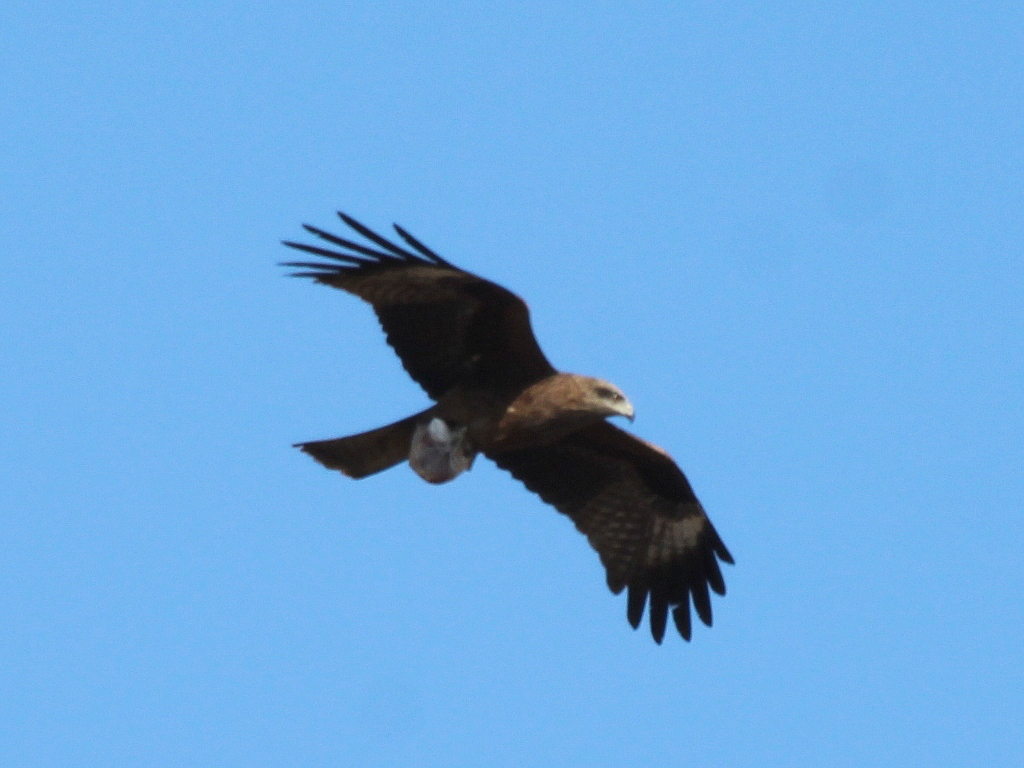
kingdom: Animalia
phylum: Chordata
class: Aves
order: Accipitriformes
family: Accipitridae
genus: Milvus
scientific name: Milvus migrans
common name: Black kite
